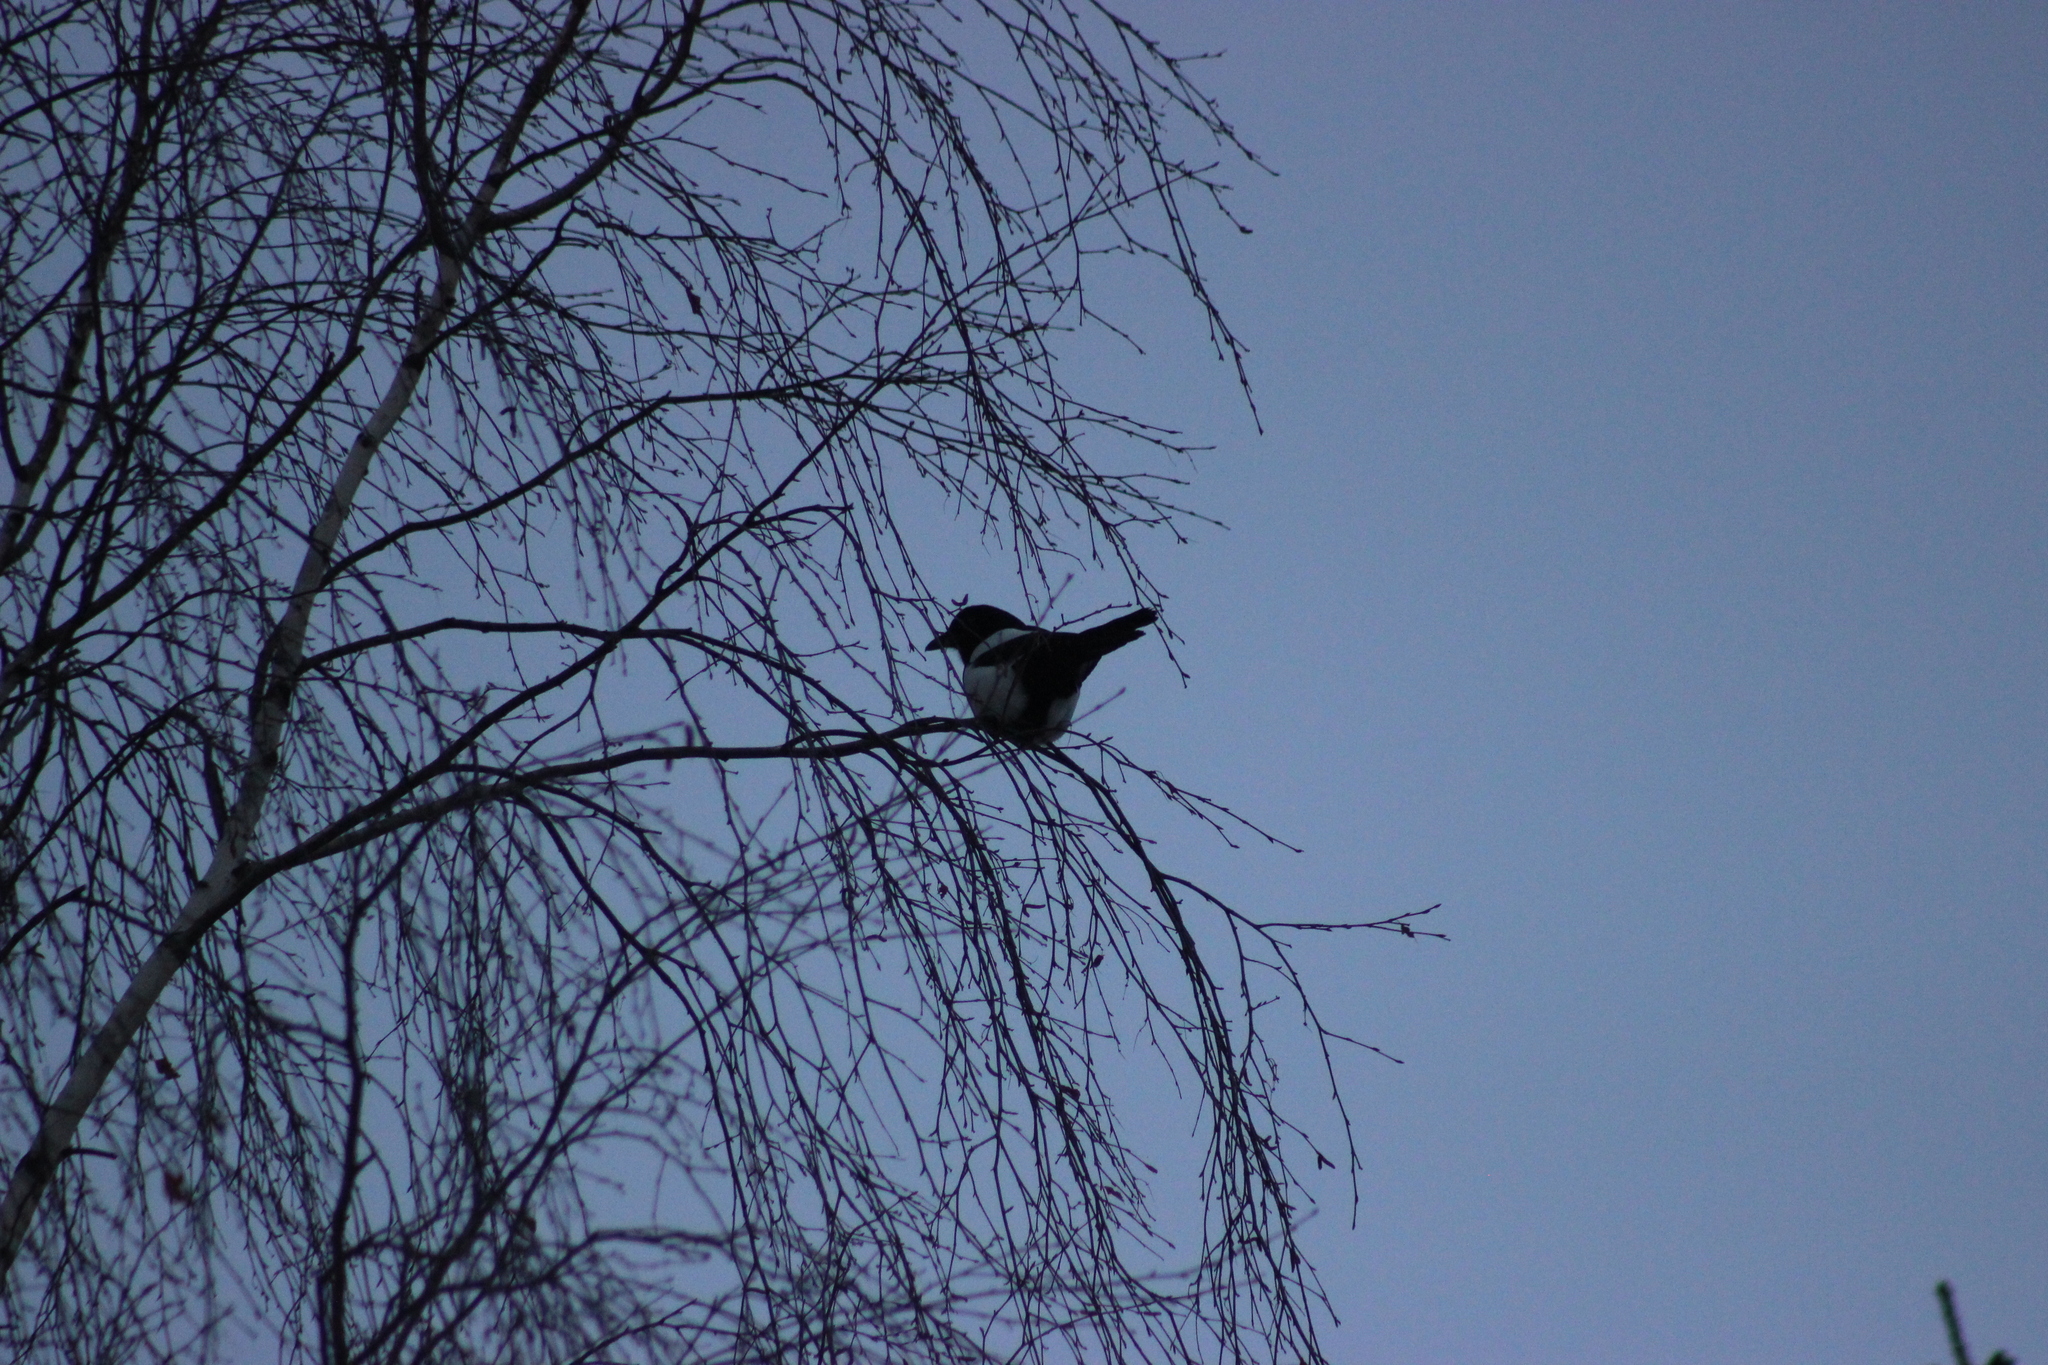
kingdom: Animalia
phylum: Chordata
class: Aves
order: Passeriformes
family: Corvidae
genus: Pica
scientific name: Pica pica
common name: Eurasian magpie
